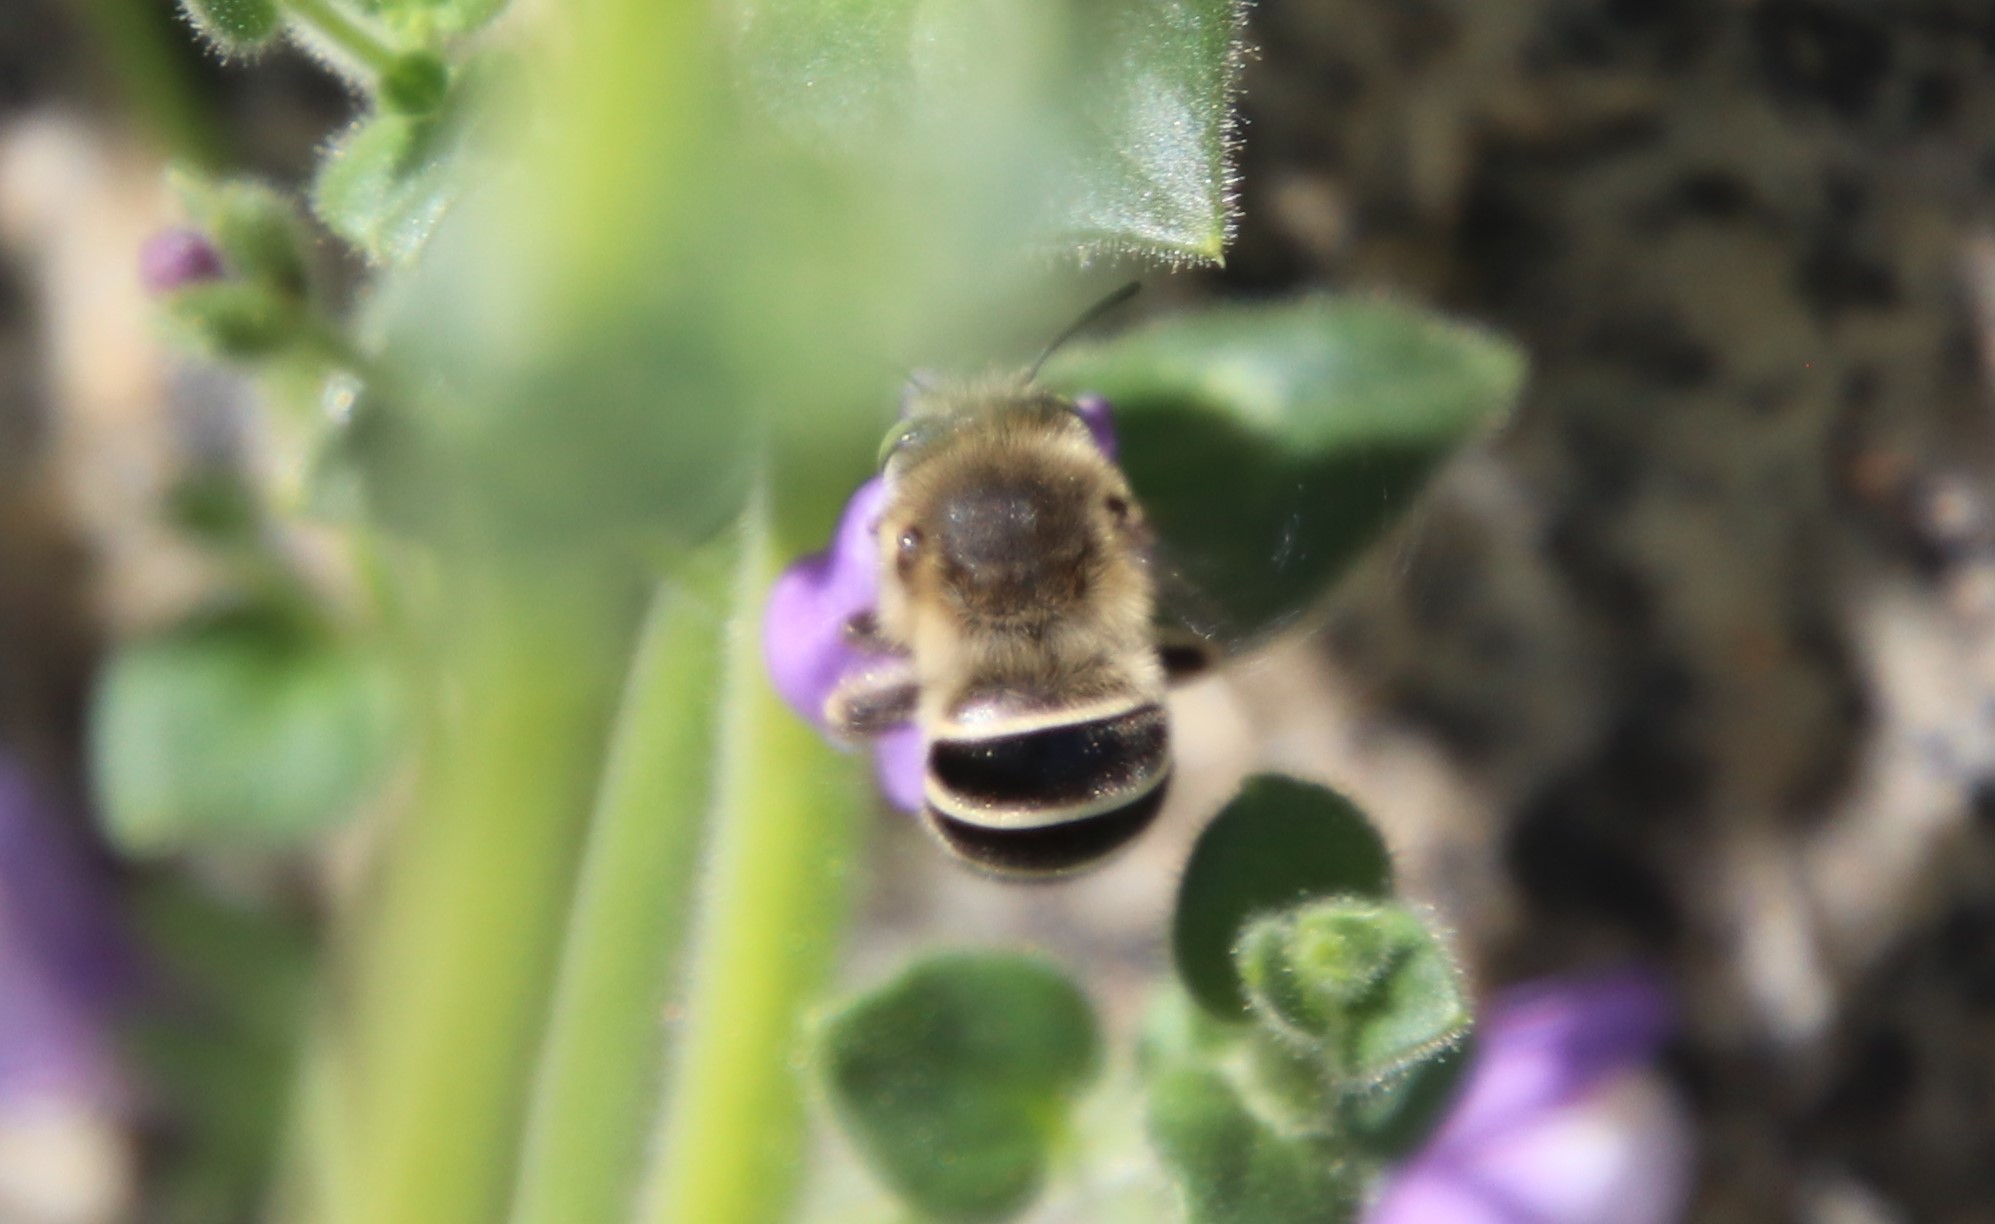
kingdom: Animalia
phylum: Arthropoda
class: Insecta
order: Hymenoptera
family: Apidae
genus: Anthophora
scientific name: Anthophora californica
